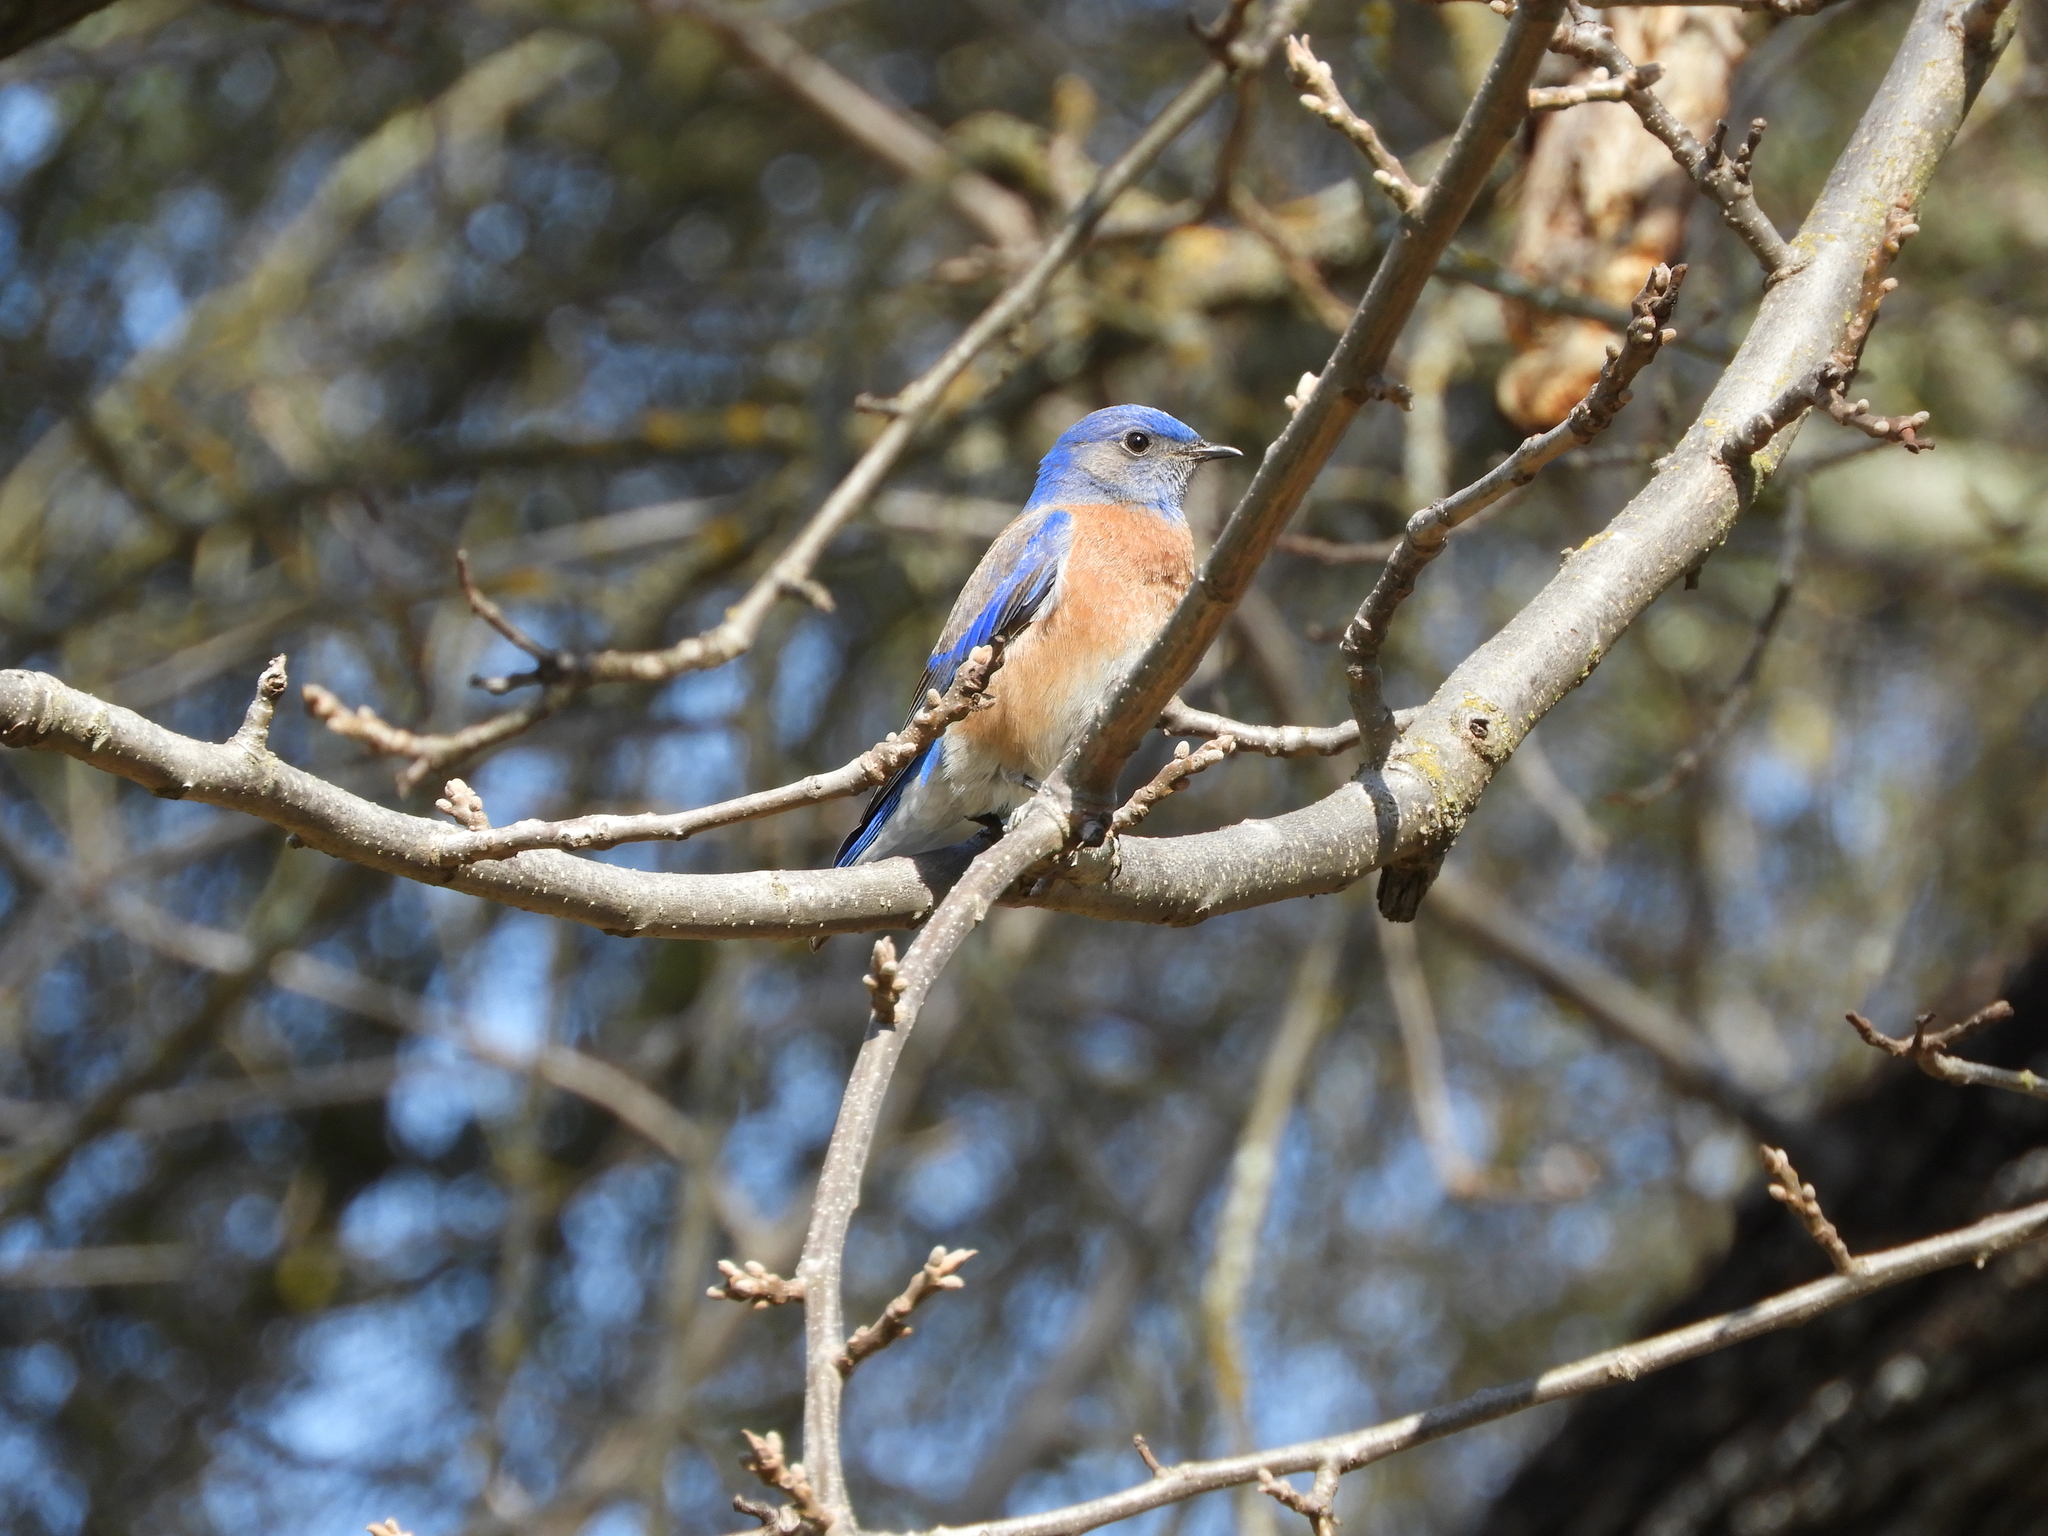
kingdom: Animalia
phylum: Chordata
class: Aves
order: Passeriformes
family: Turdidae
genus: Sialia
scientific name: Sialia mexicana
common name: Western bluebird
